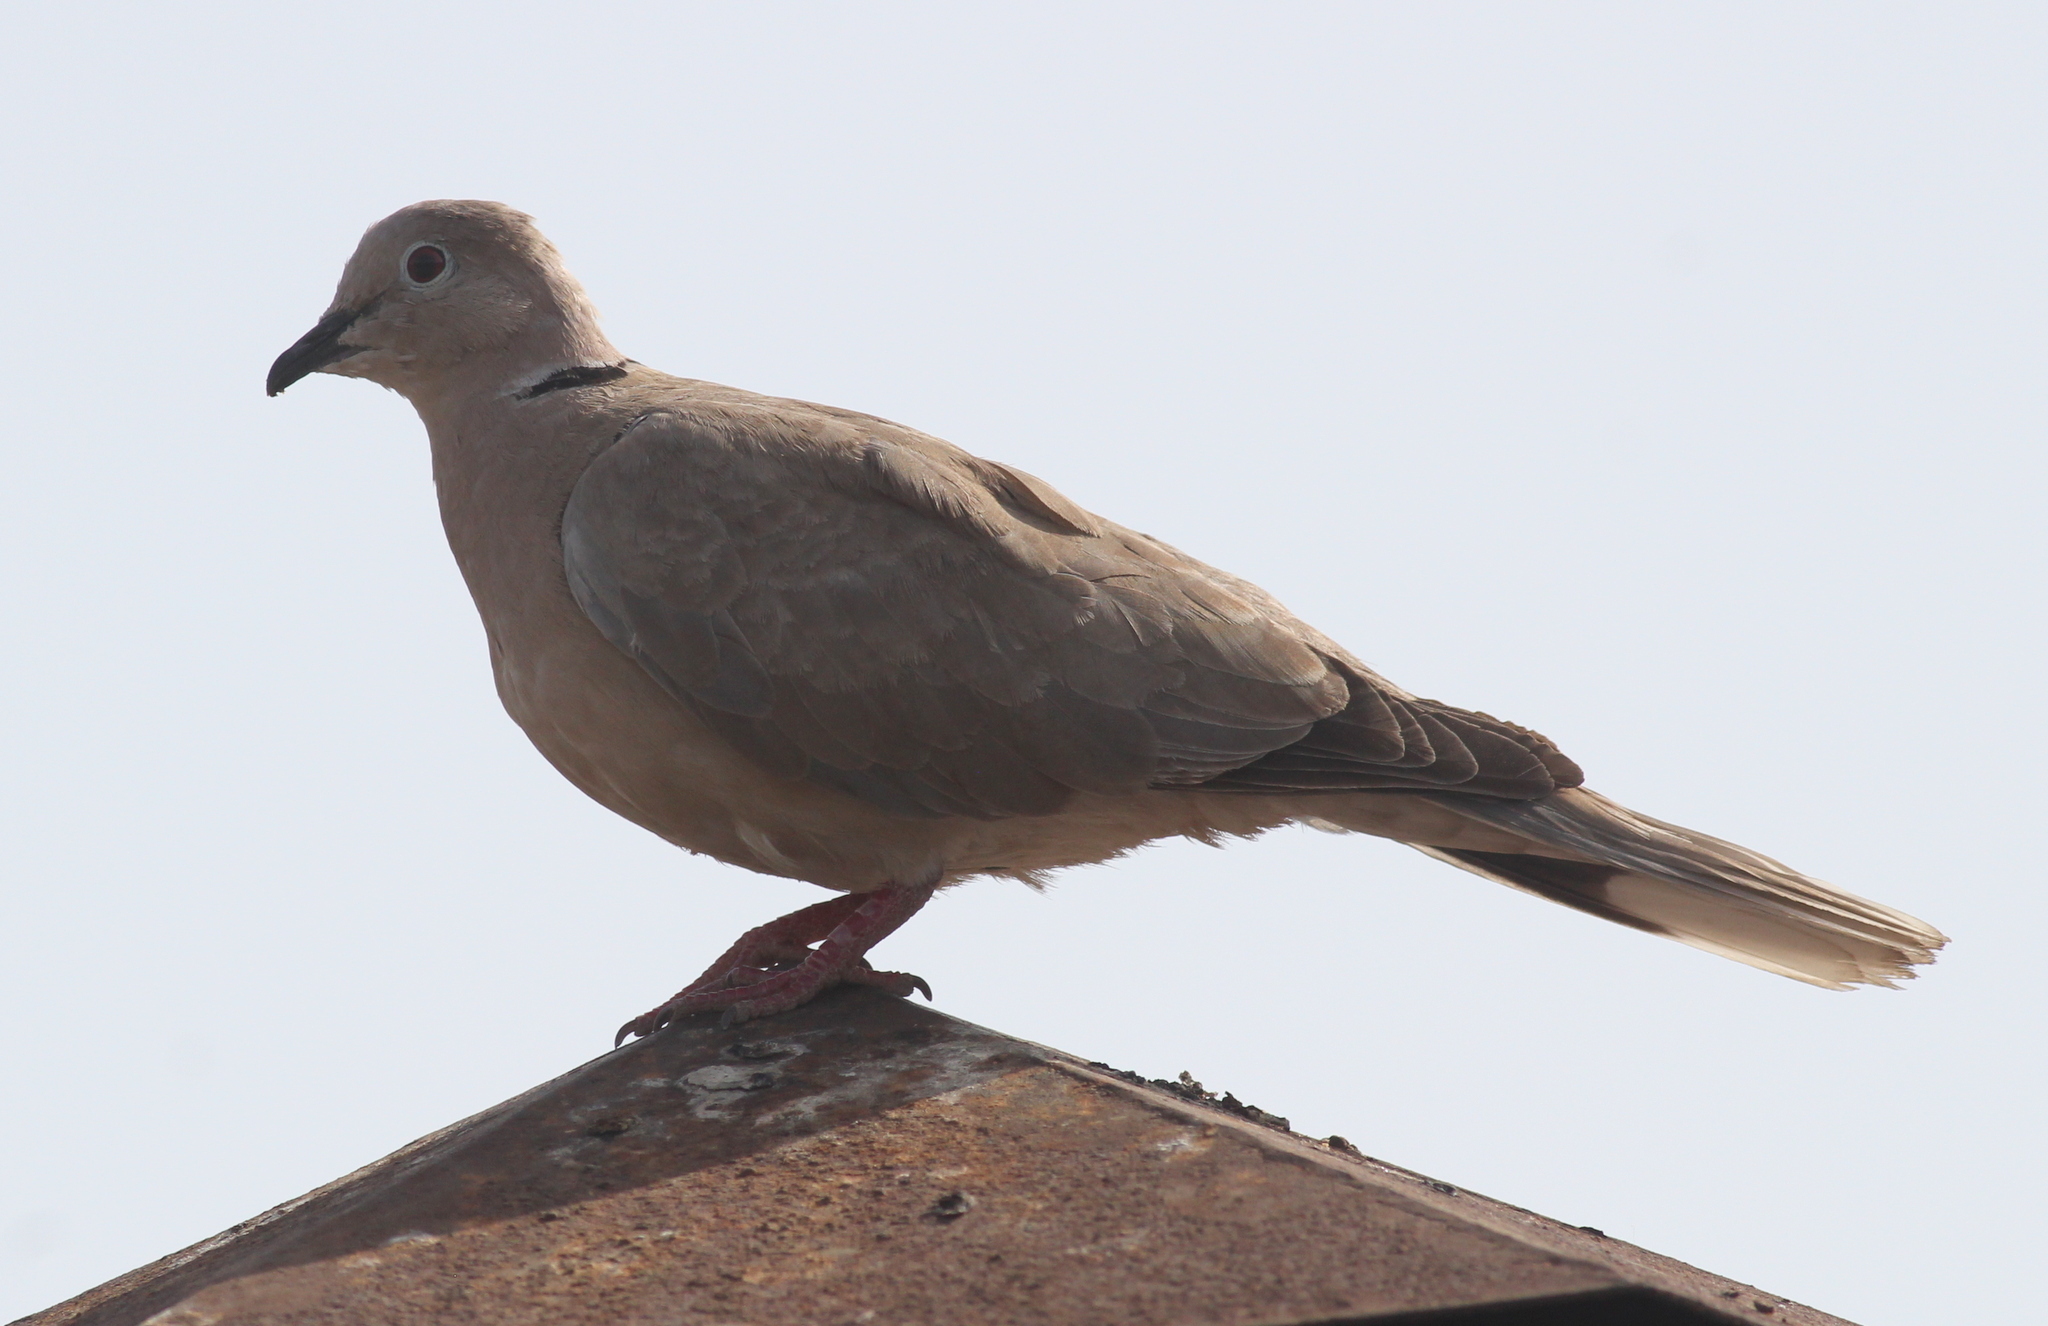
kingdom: Animalia
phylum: Chordata
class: Aves
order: Columbiformes
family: Columbidae
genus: Streptopelia
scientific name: Streptopelia decaocto
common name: Eurasian collared dove
